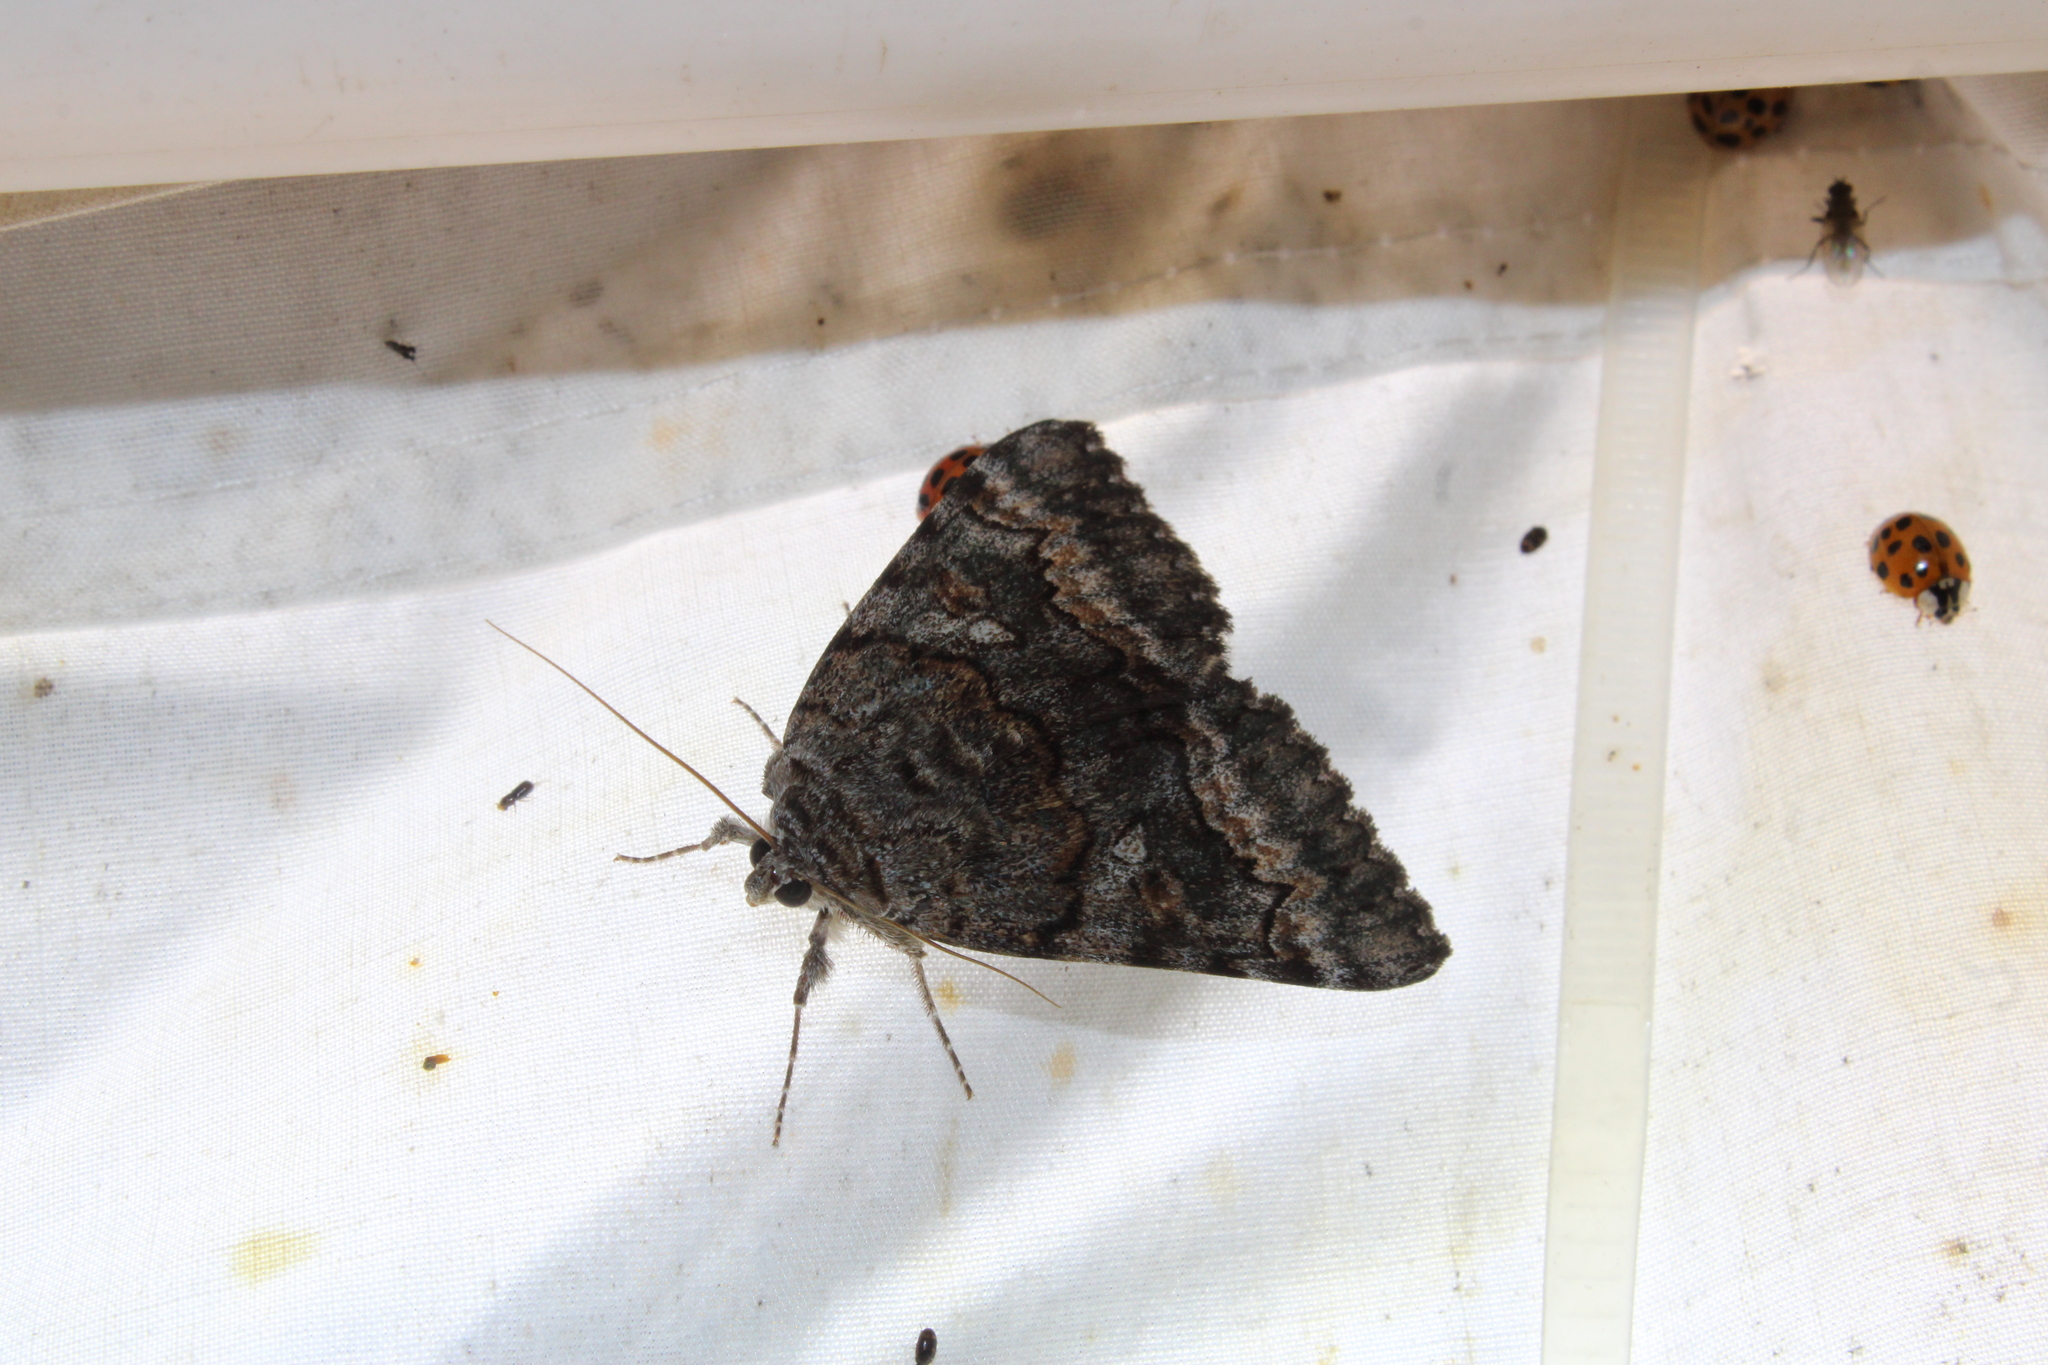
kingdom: Animalia
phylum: Arthropoda
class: Insecta
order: Lepidoptera
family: Erebidae
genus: Catocala
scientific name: Catocala epione
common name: Epione underwing
